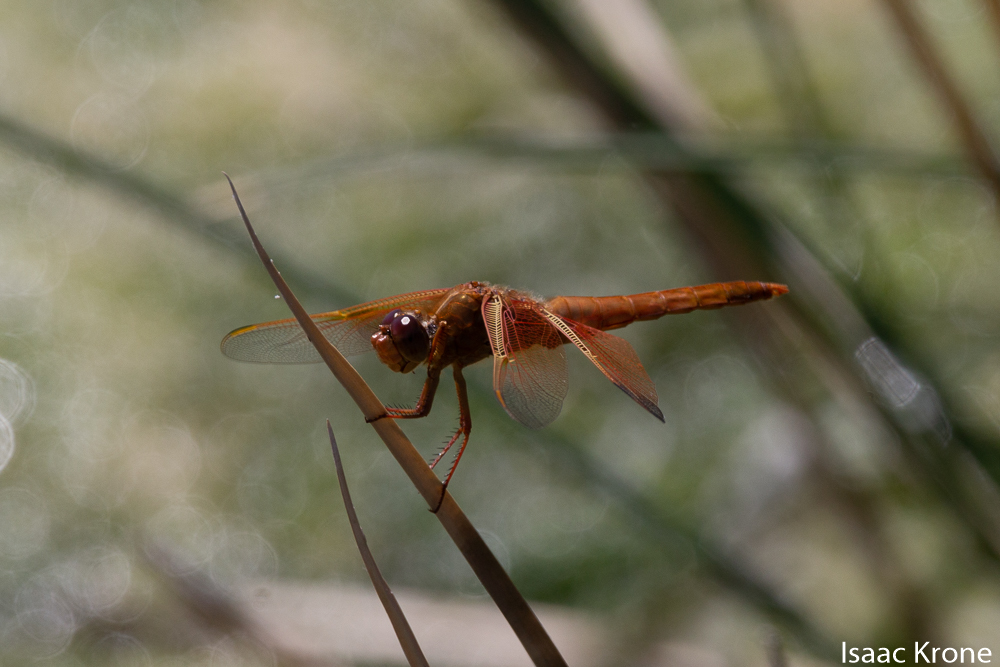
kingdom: Animalia
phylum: Arthropoda
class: Insecta
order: Odonata
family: Libellulidae
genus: Libellula
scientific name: Libellula saturata
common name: Flame skimmer
